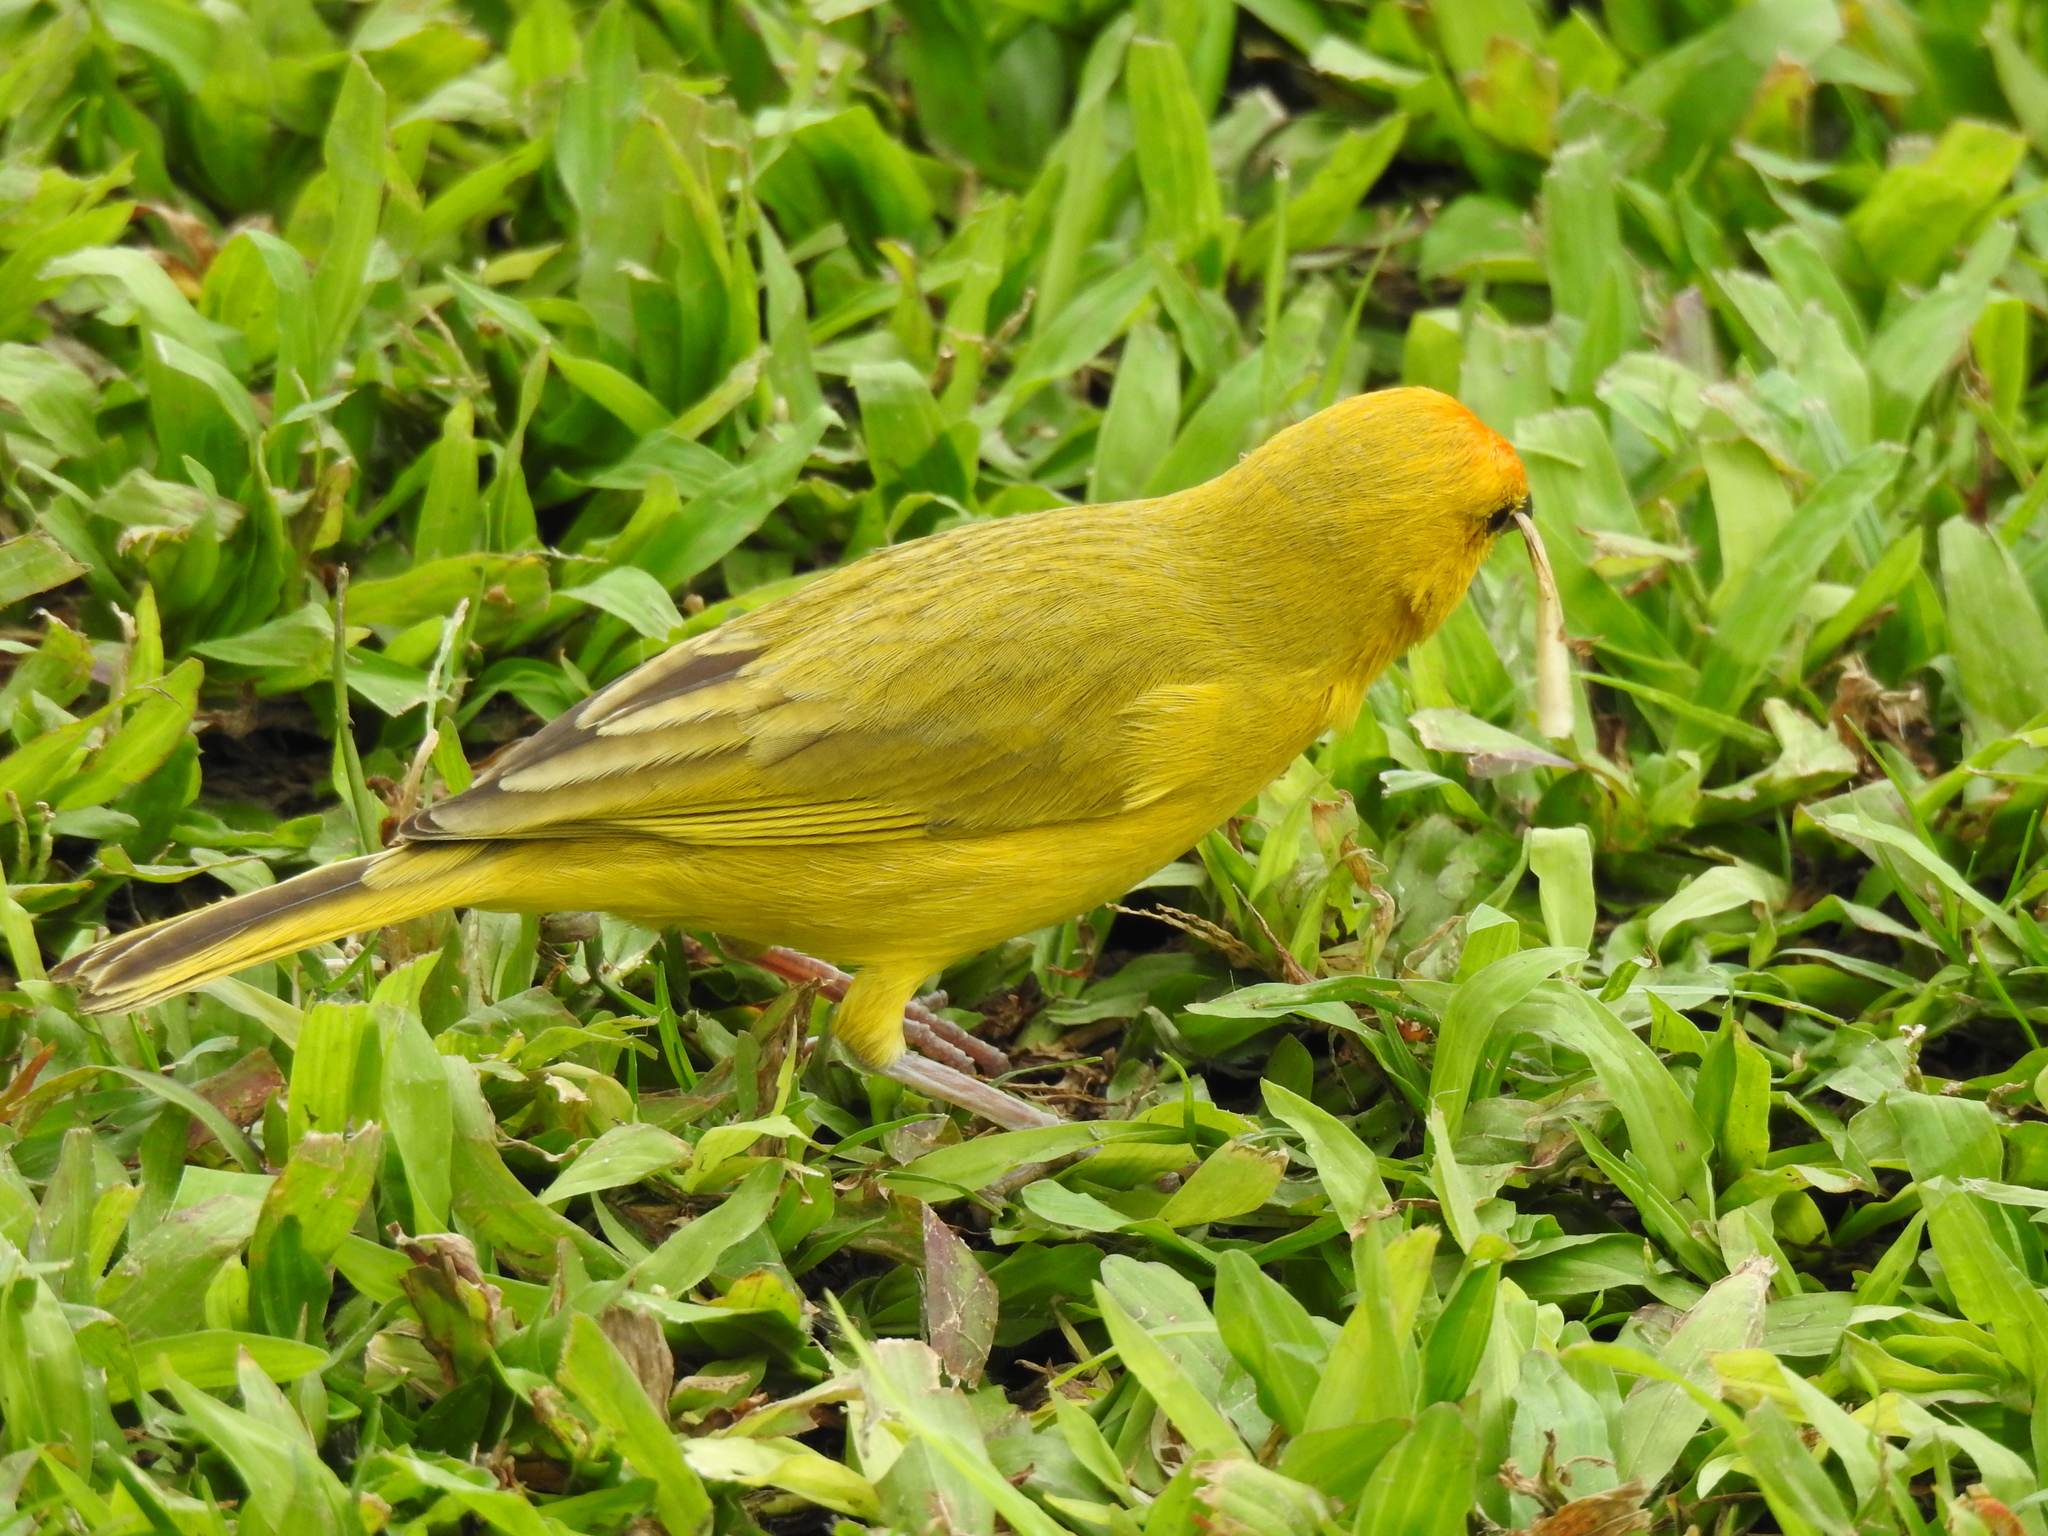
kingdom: Animalia
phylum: Chordata
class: Aves
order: Passeriformes
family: Thraupidae
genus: Sicalis
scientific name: Sicalis flaveola
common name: Saffron finch
